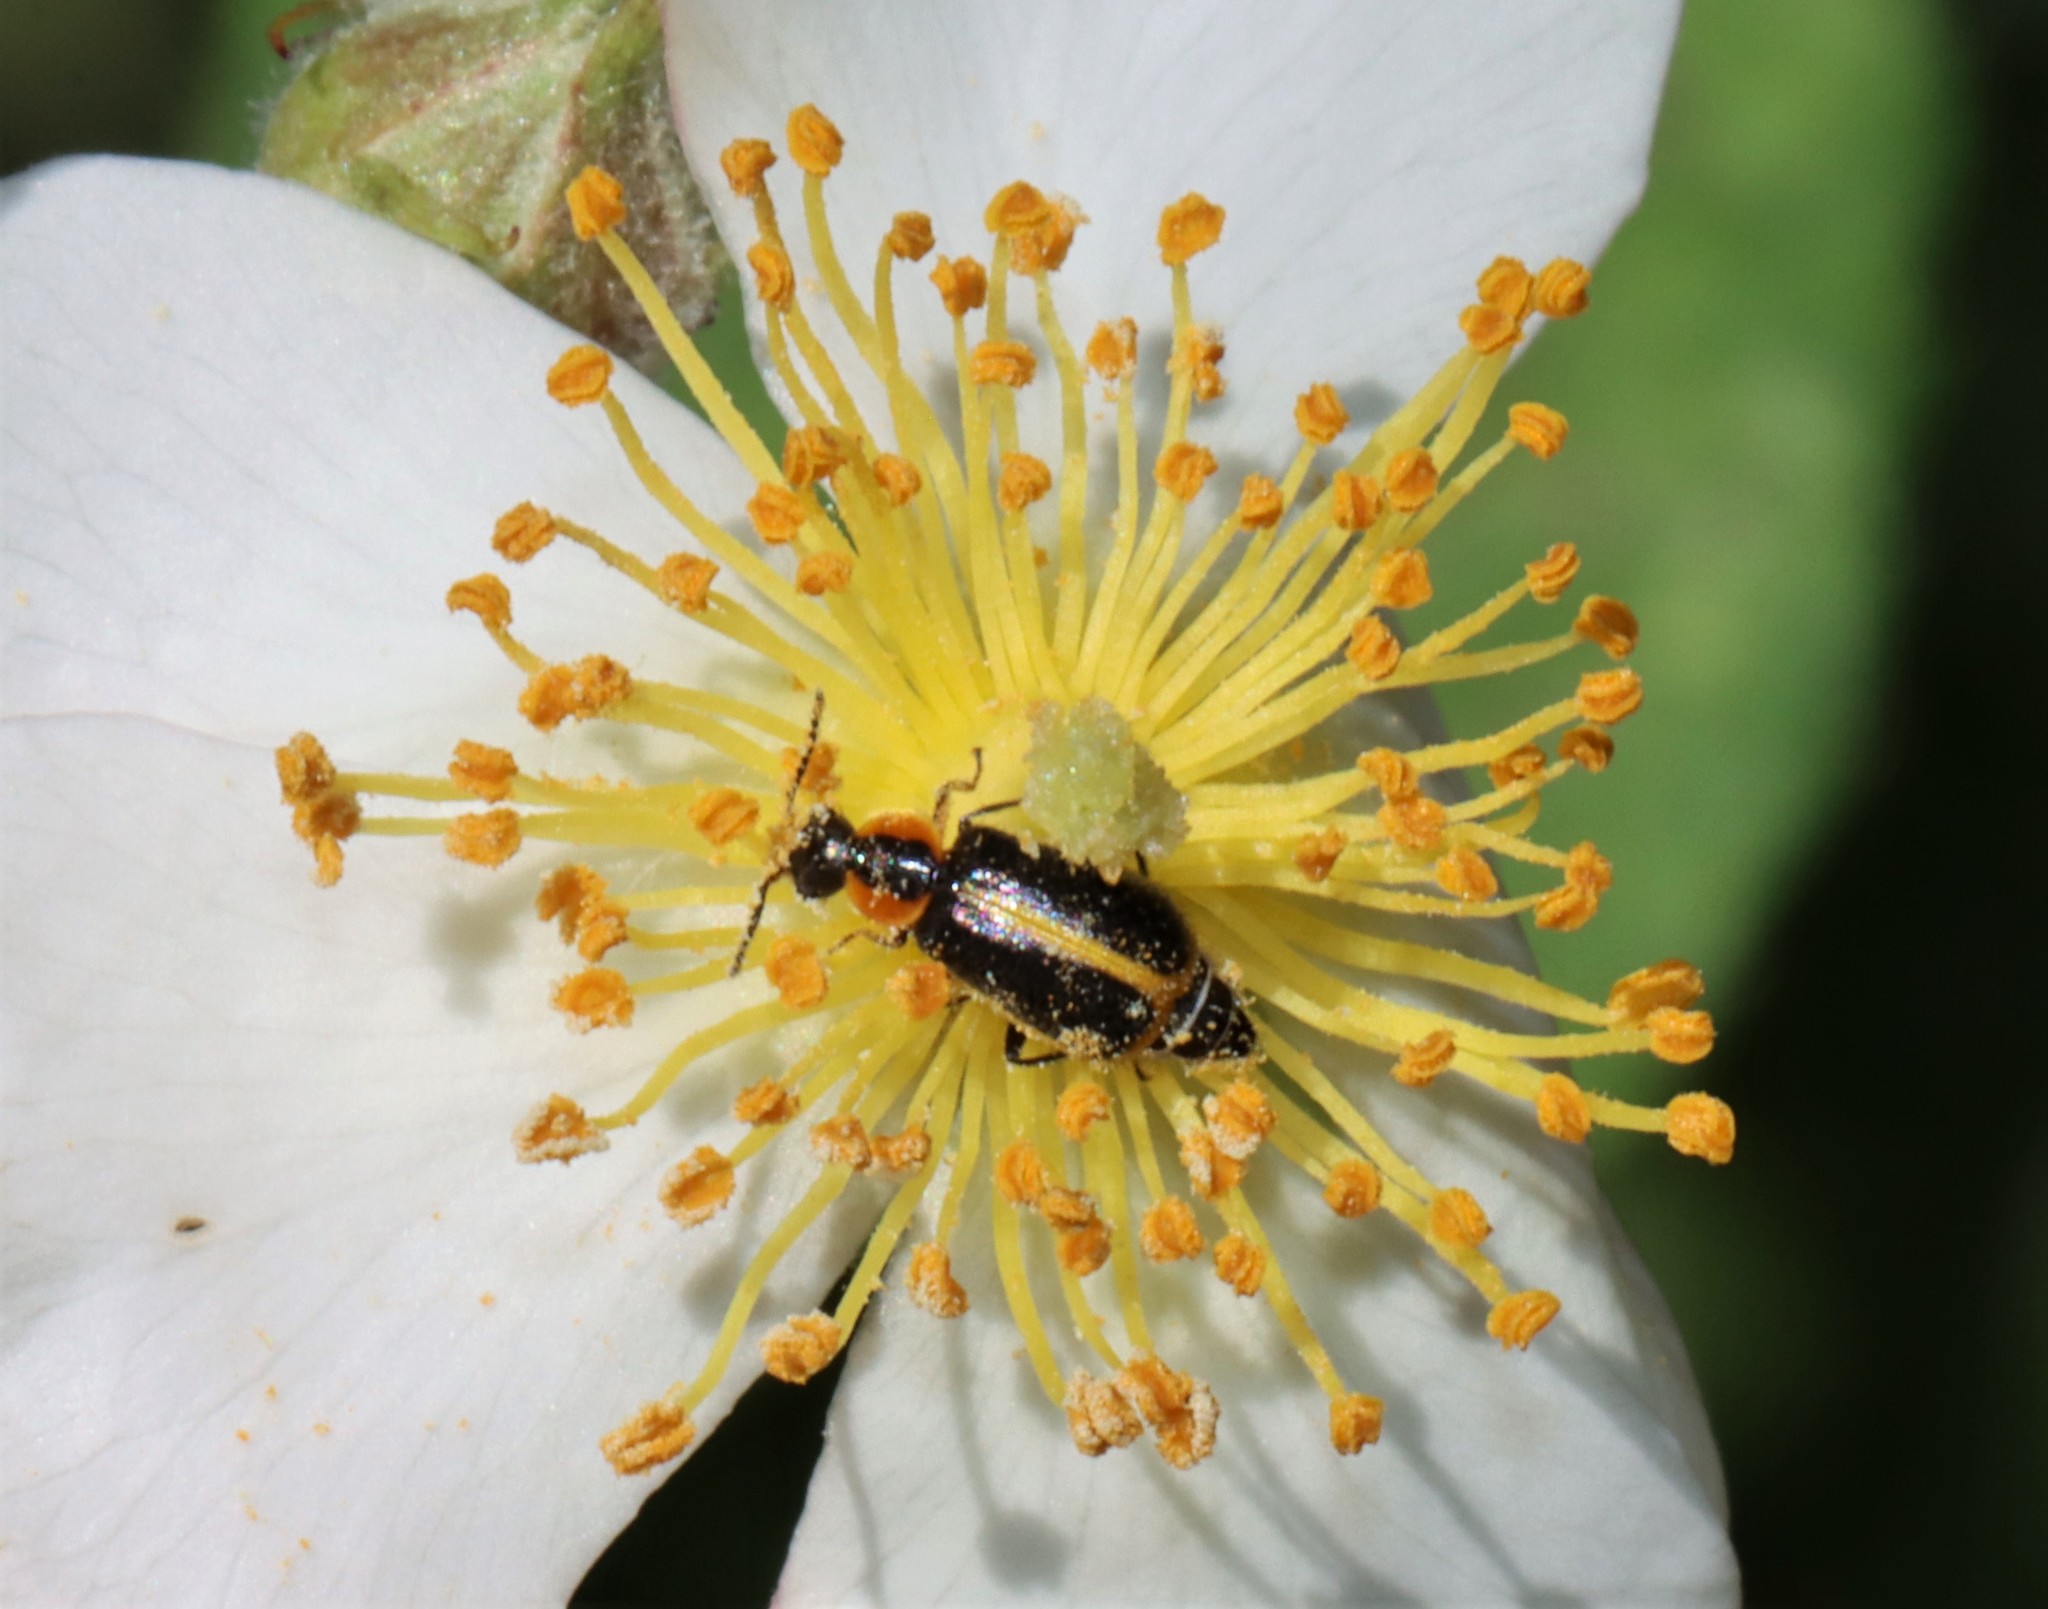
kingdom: Animalia
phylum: Arthropoda
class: Insecta
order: Coleoptera
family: Malachiidae
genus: Attalus
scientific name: Attalus
